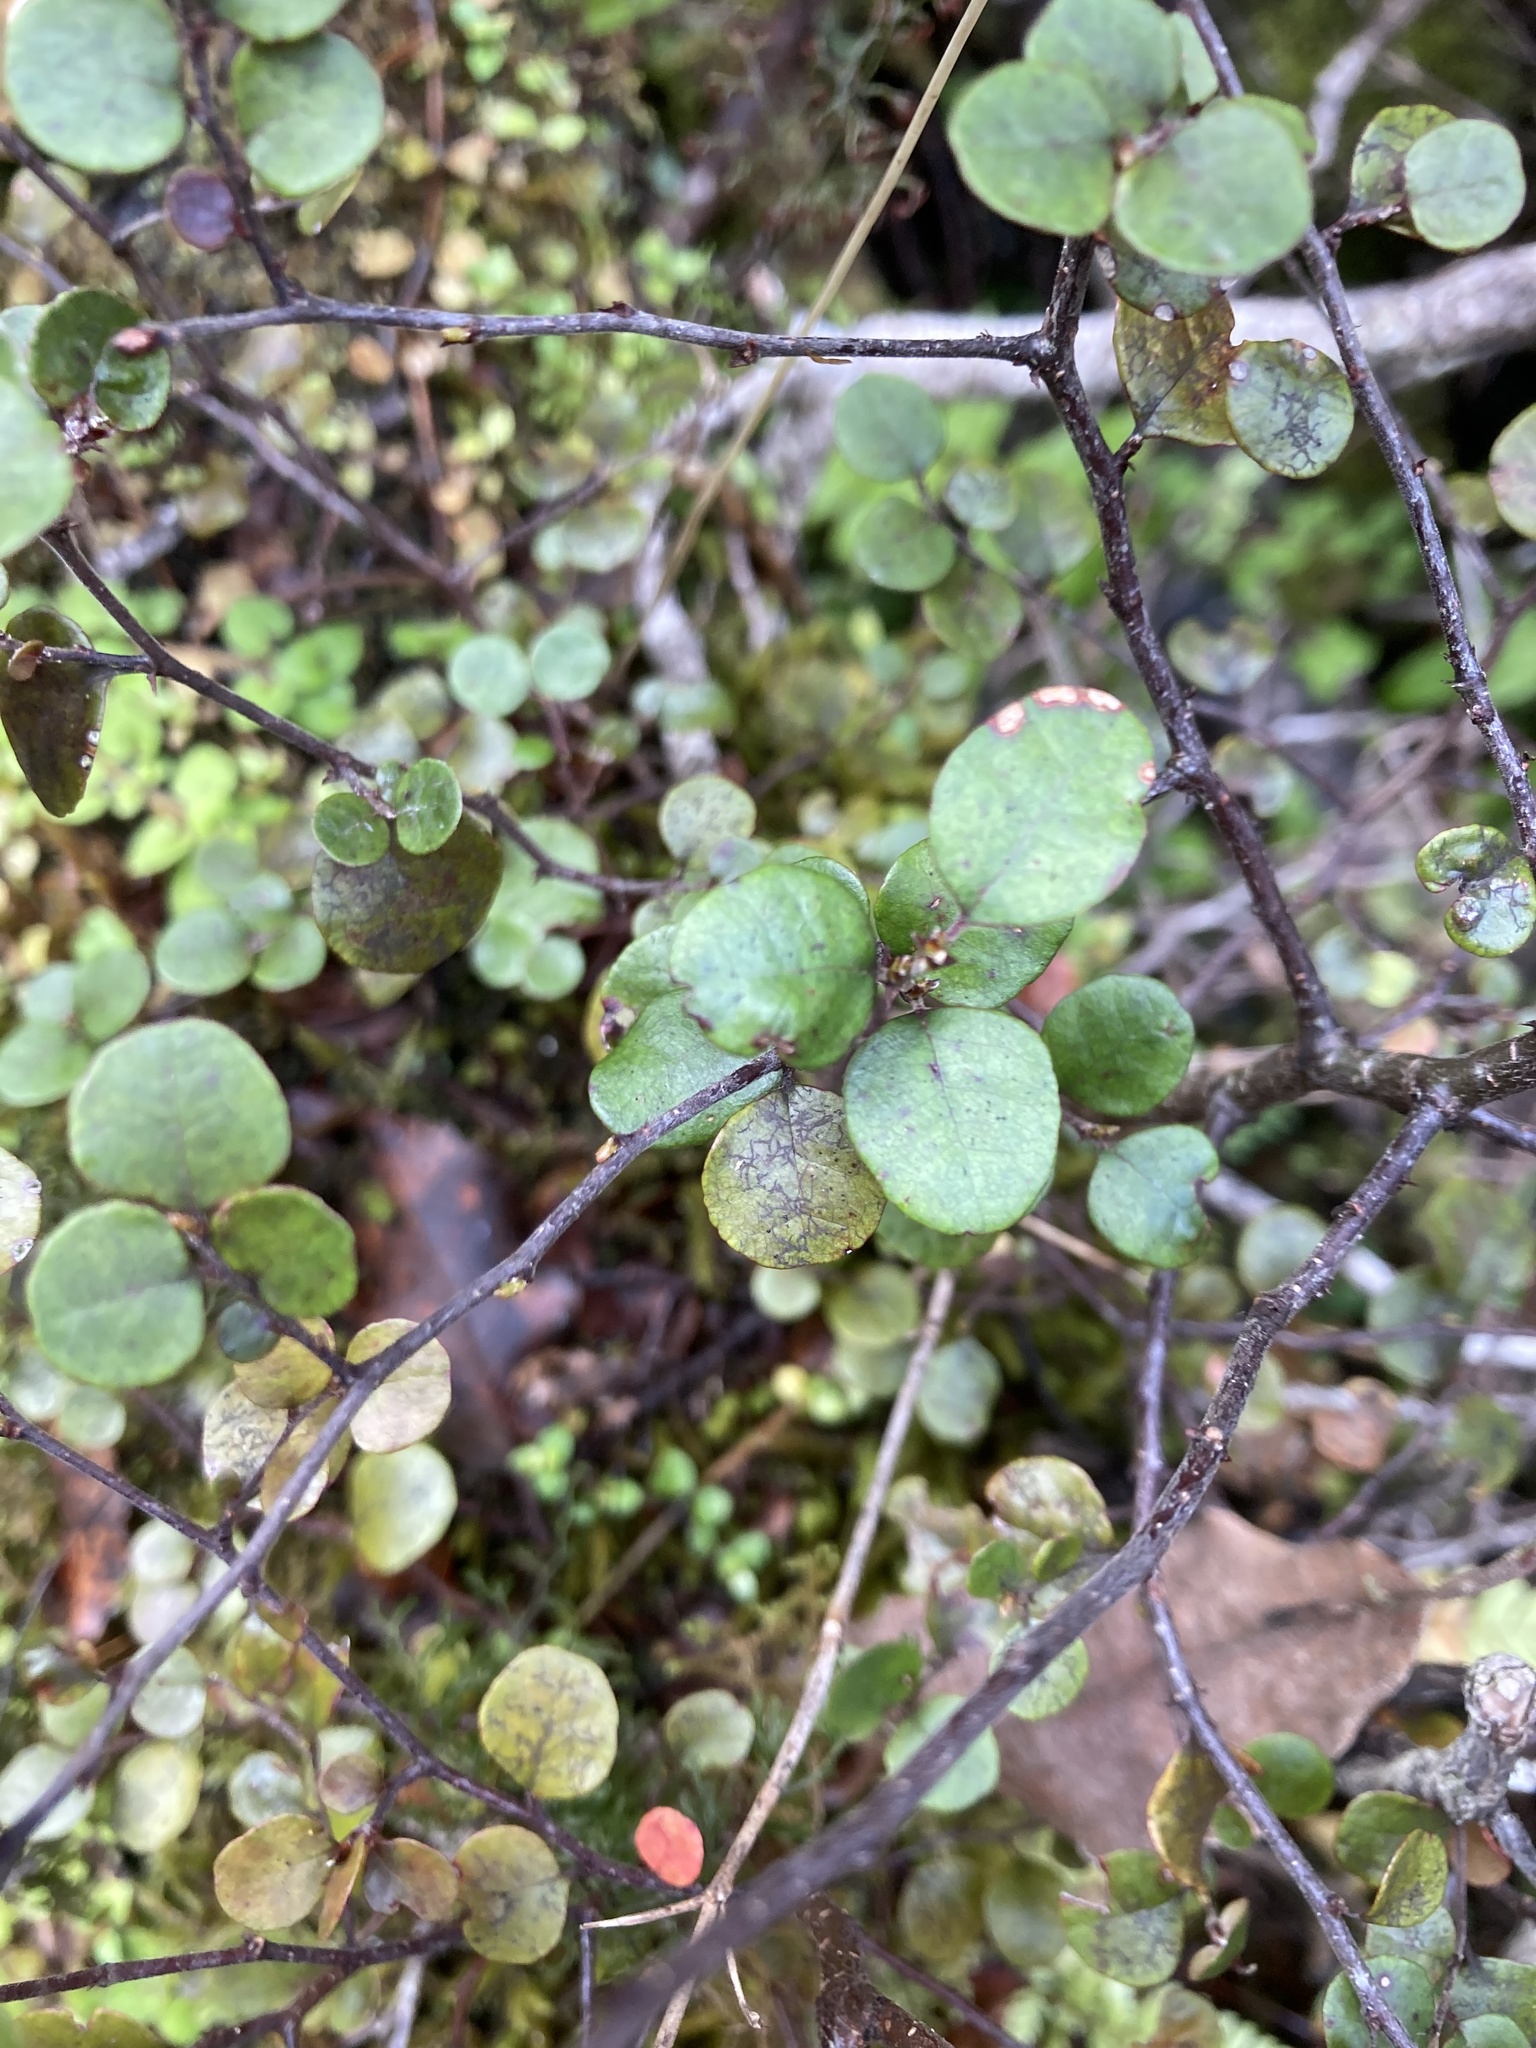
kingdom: Plantae
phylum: Tracheophyta
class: Magnoliopsida
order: Fagales
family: Nothofagaceae
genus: Nothofagus
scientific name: Nothofagus solandri
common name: Black beech
